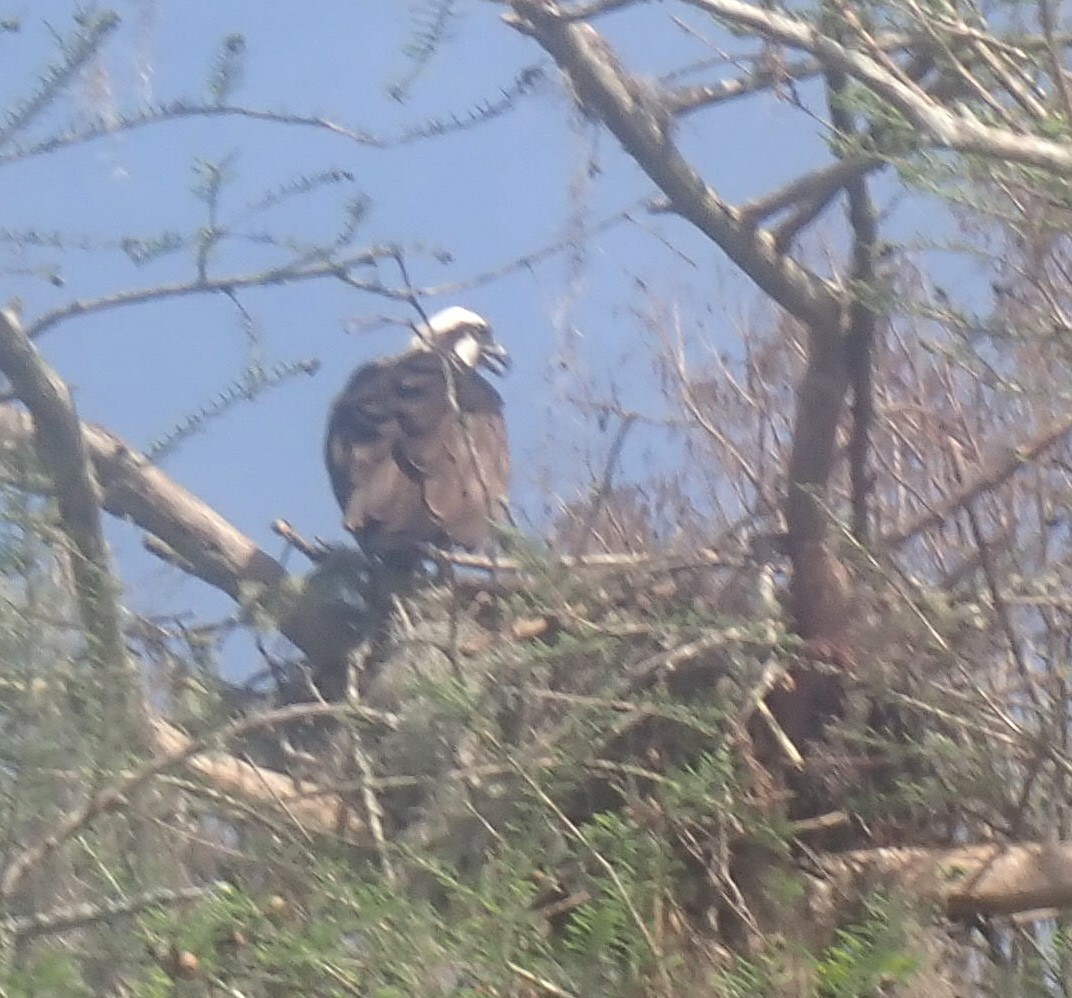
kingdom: Animalia
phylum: Chordata
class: Aves
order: Accipitriformes
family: Pandionidae
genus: Pandion
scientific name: Pandion haliaetus
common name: Osprey
